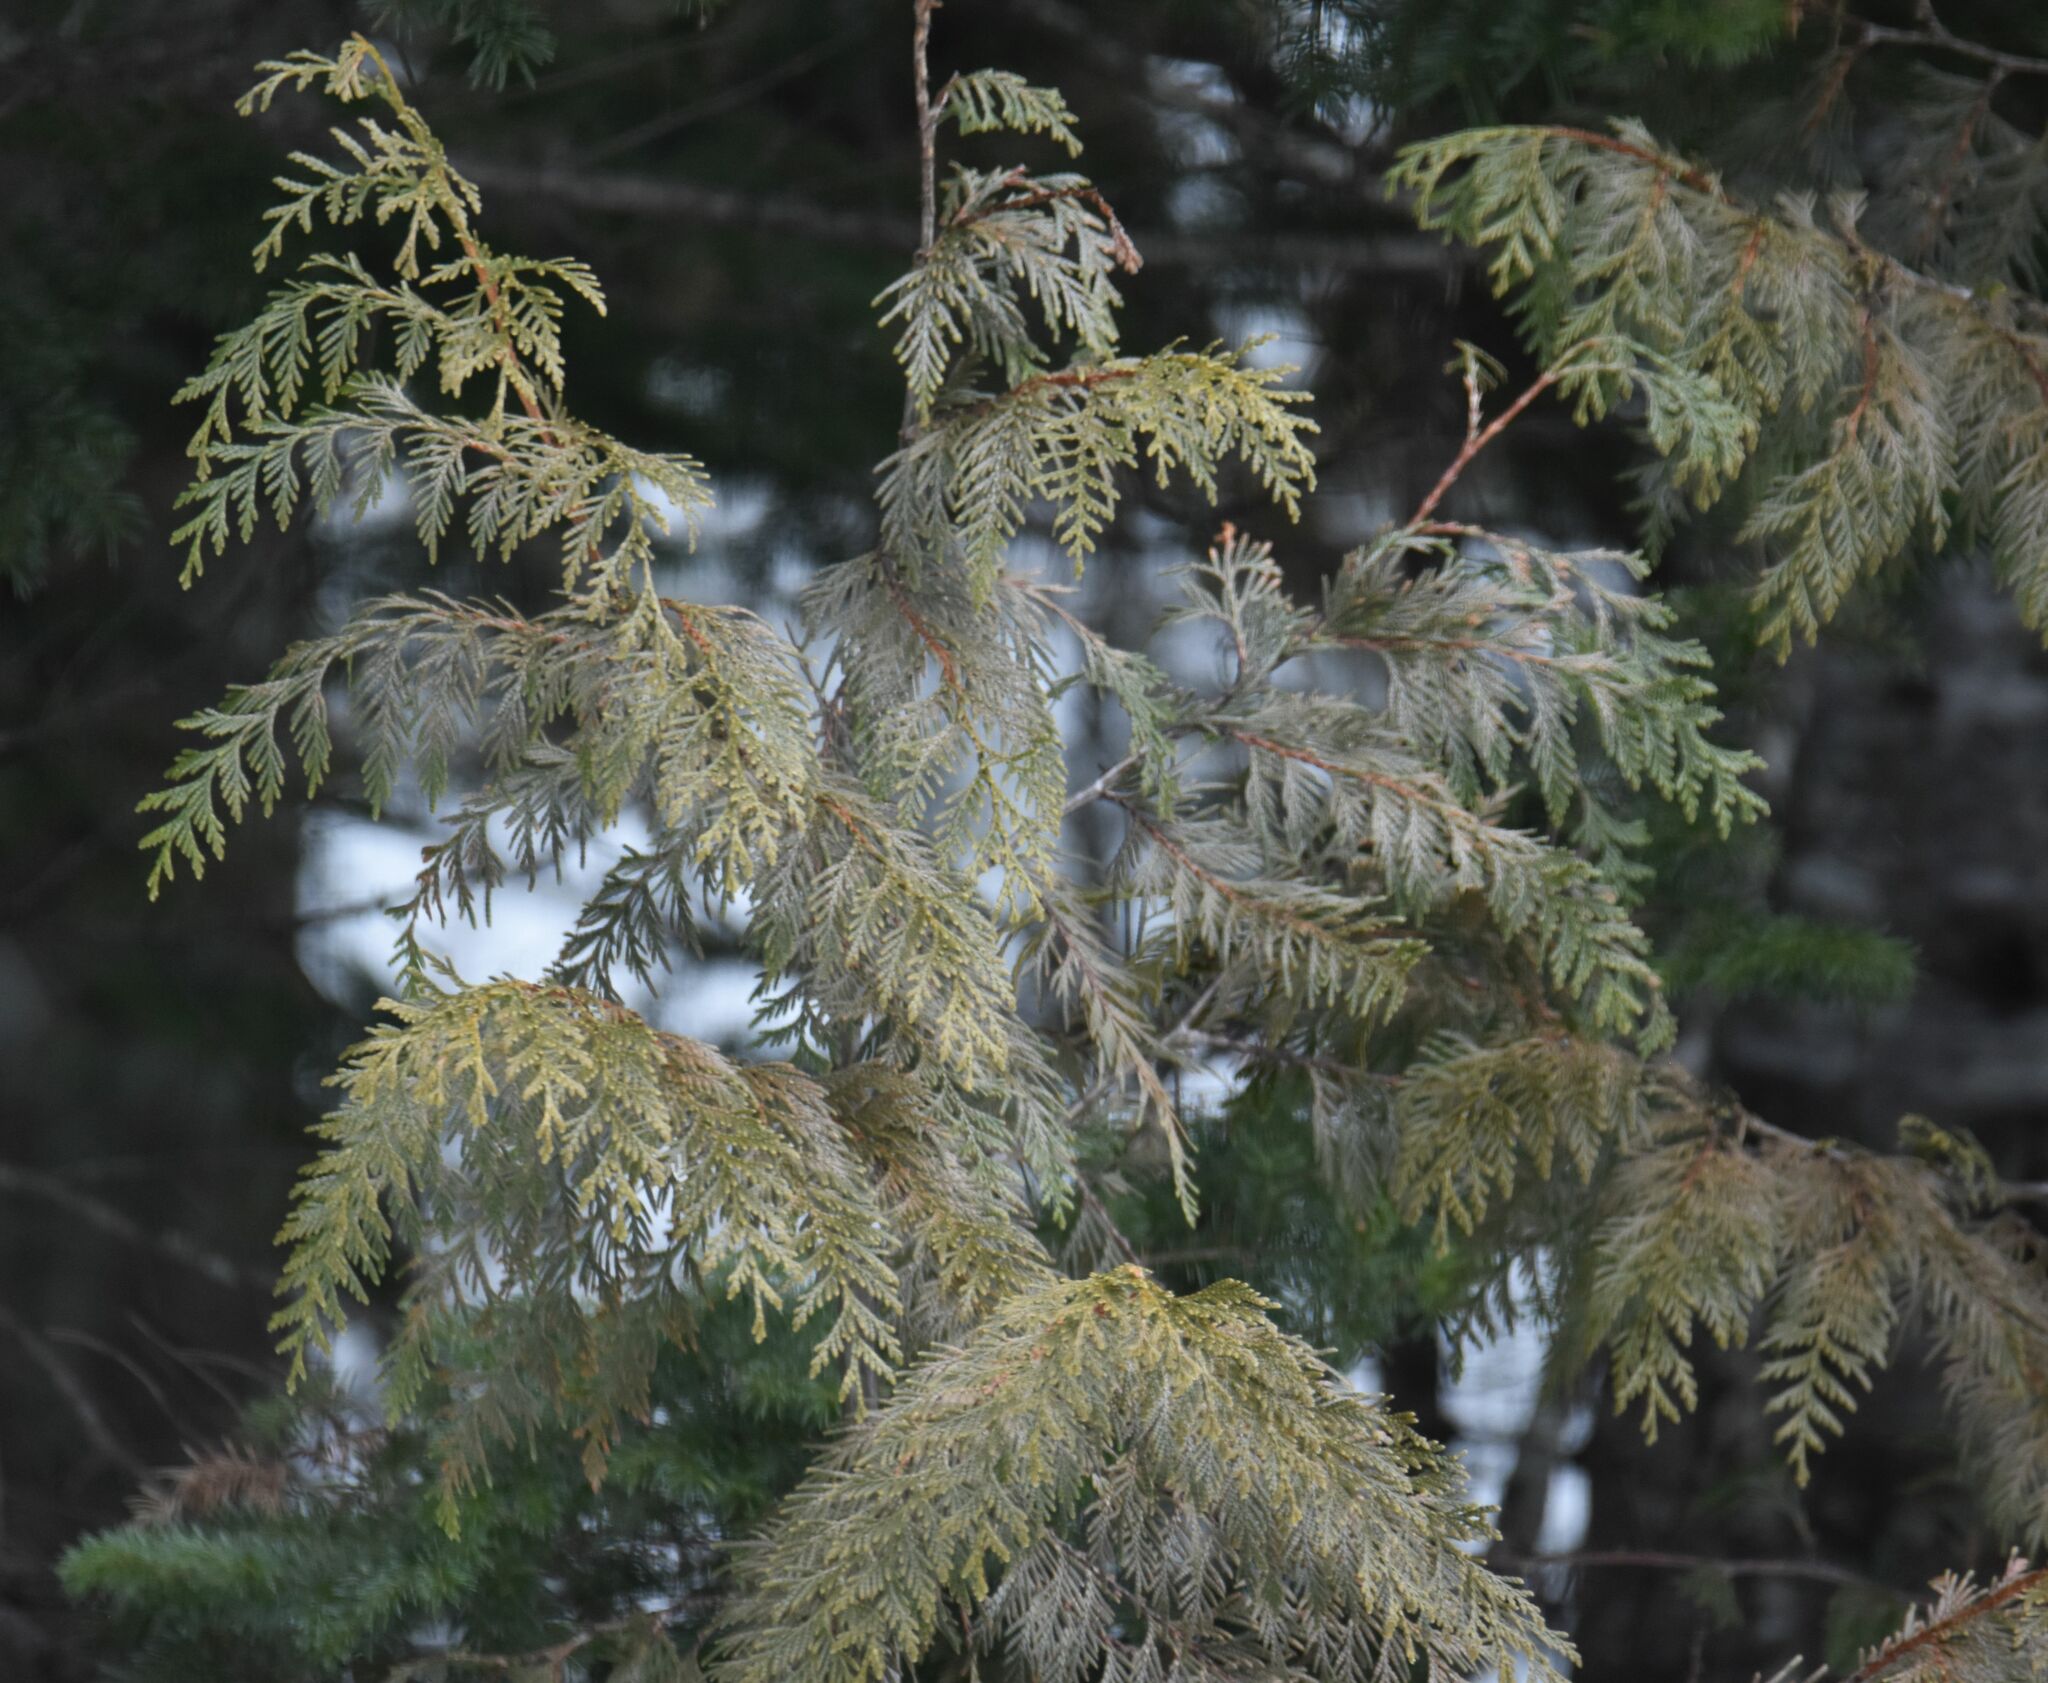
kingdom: Plantae
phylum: Tracheophyta
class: Pinopsida
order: Pinales
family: Cupressaceae
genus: Thuja
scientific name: Thuja plicata
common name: Western red-cedar
